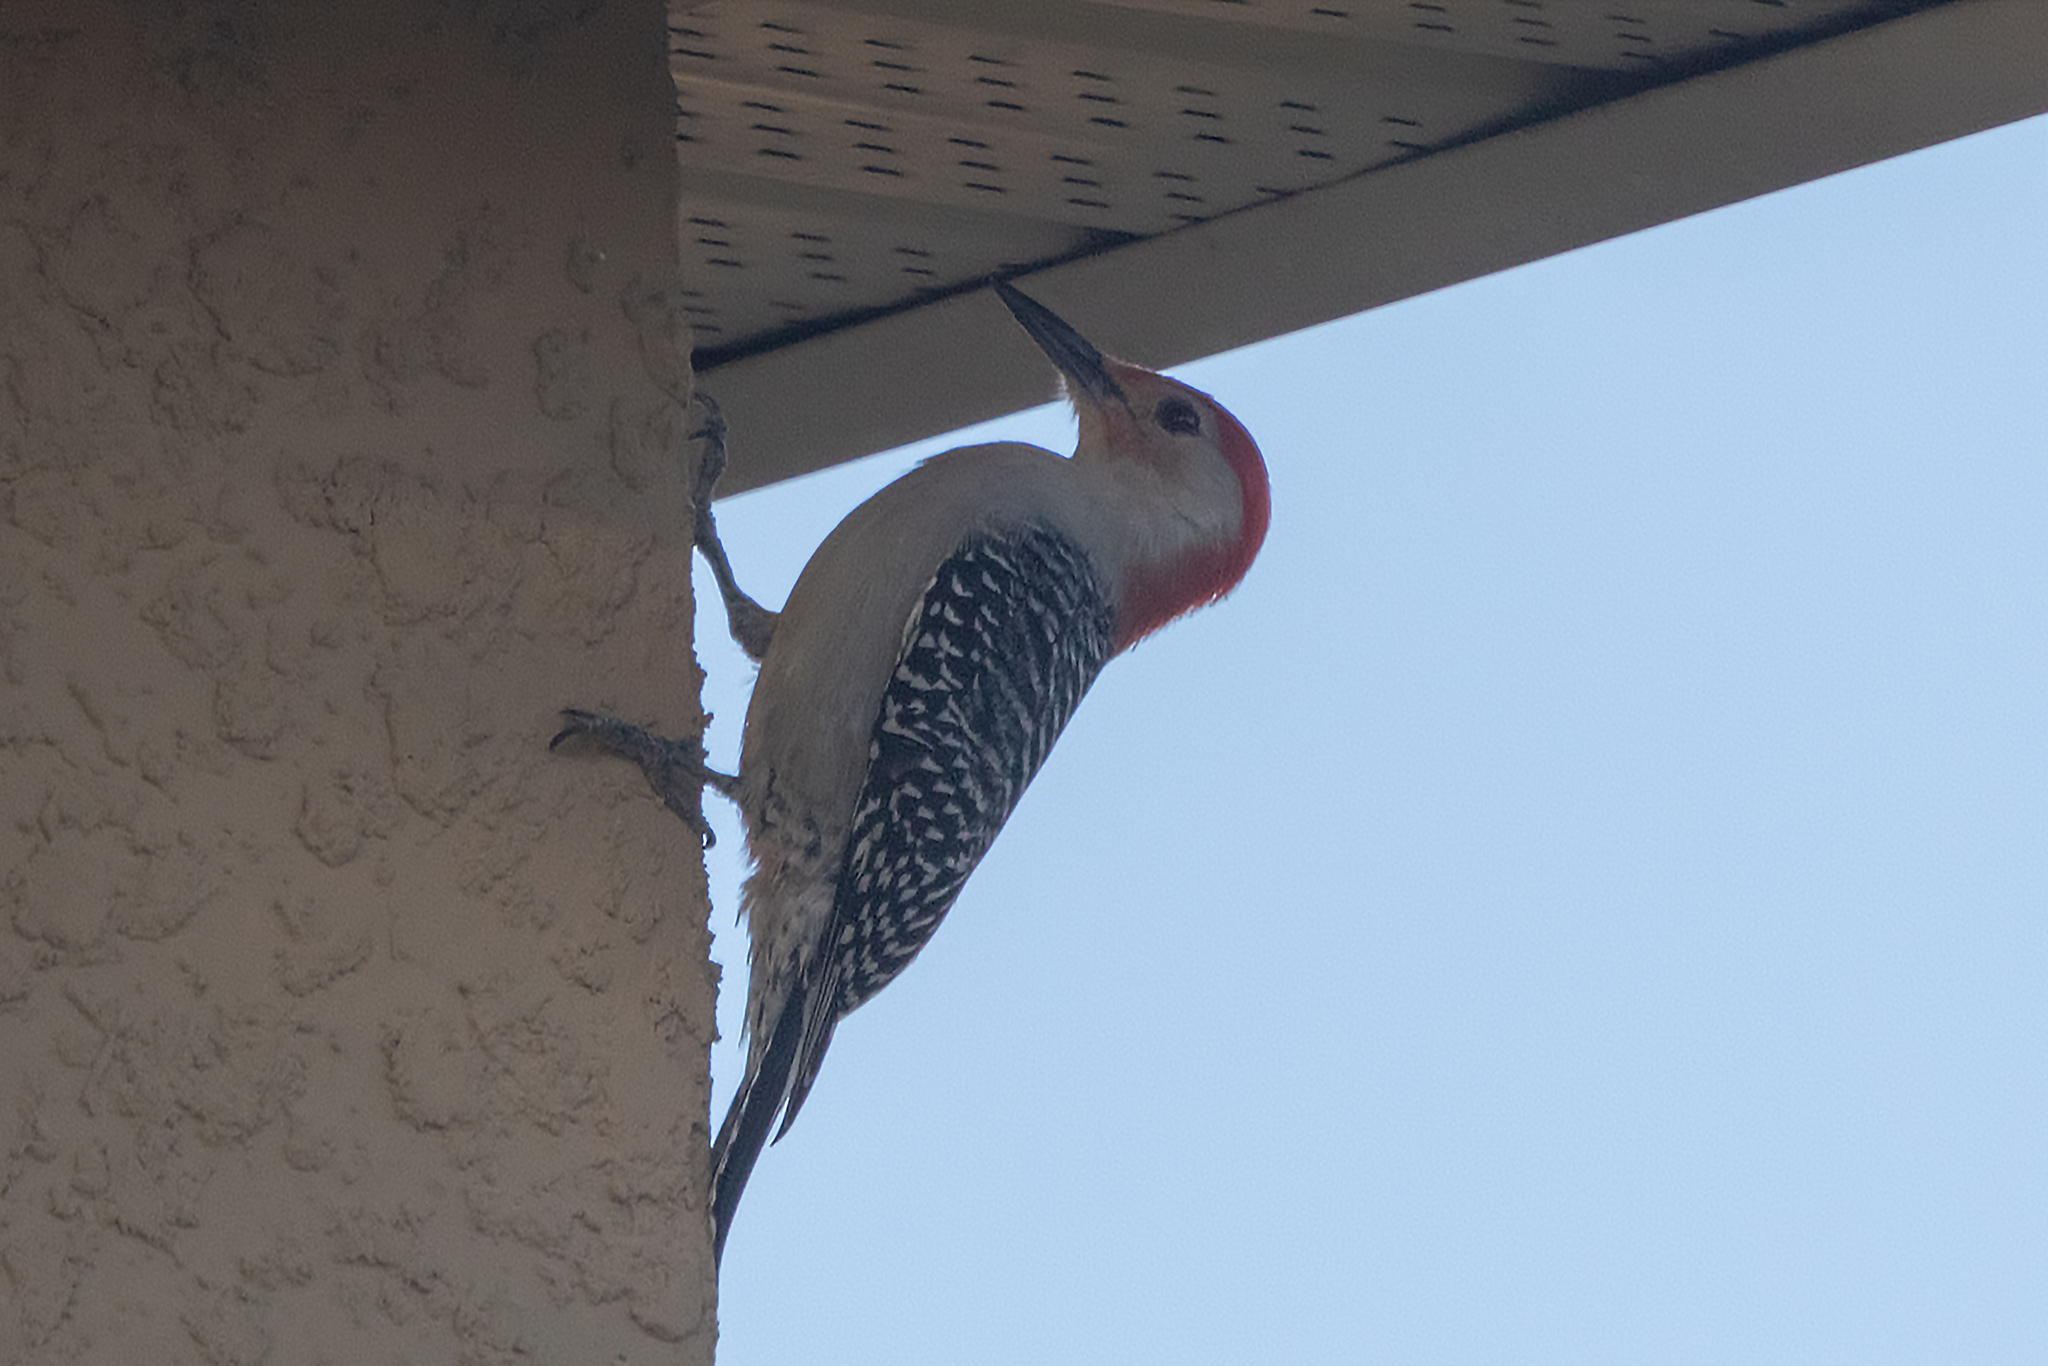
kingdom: Animalia
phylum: Chordata
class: Aves
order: Piciformes
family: Picidae
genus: Melanerpes
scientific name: Melanerpes carolinus
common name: Red-bellied woodpecker
